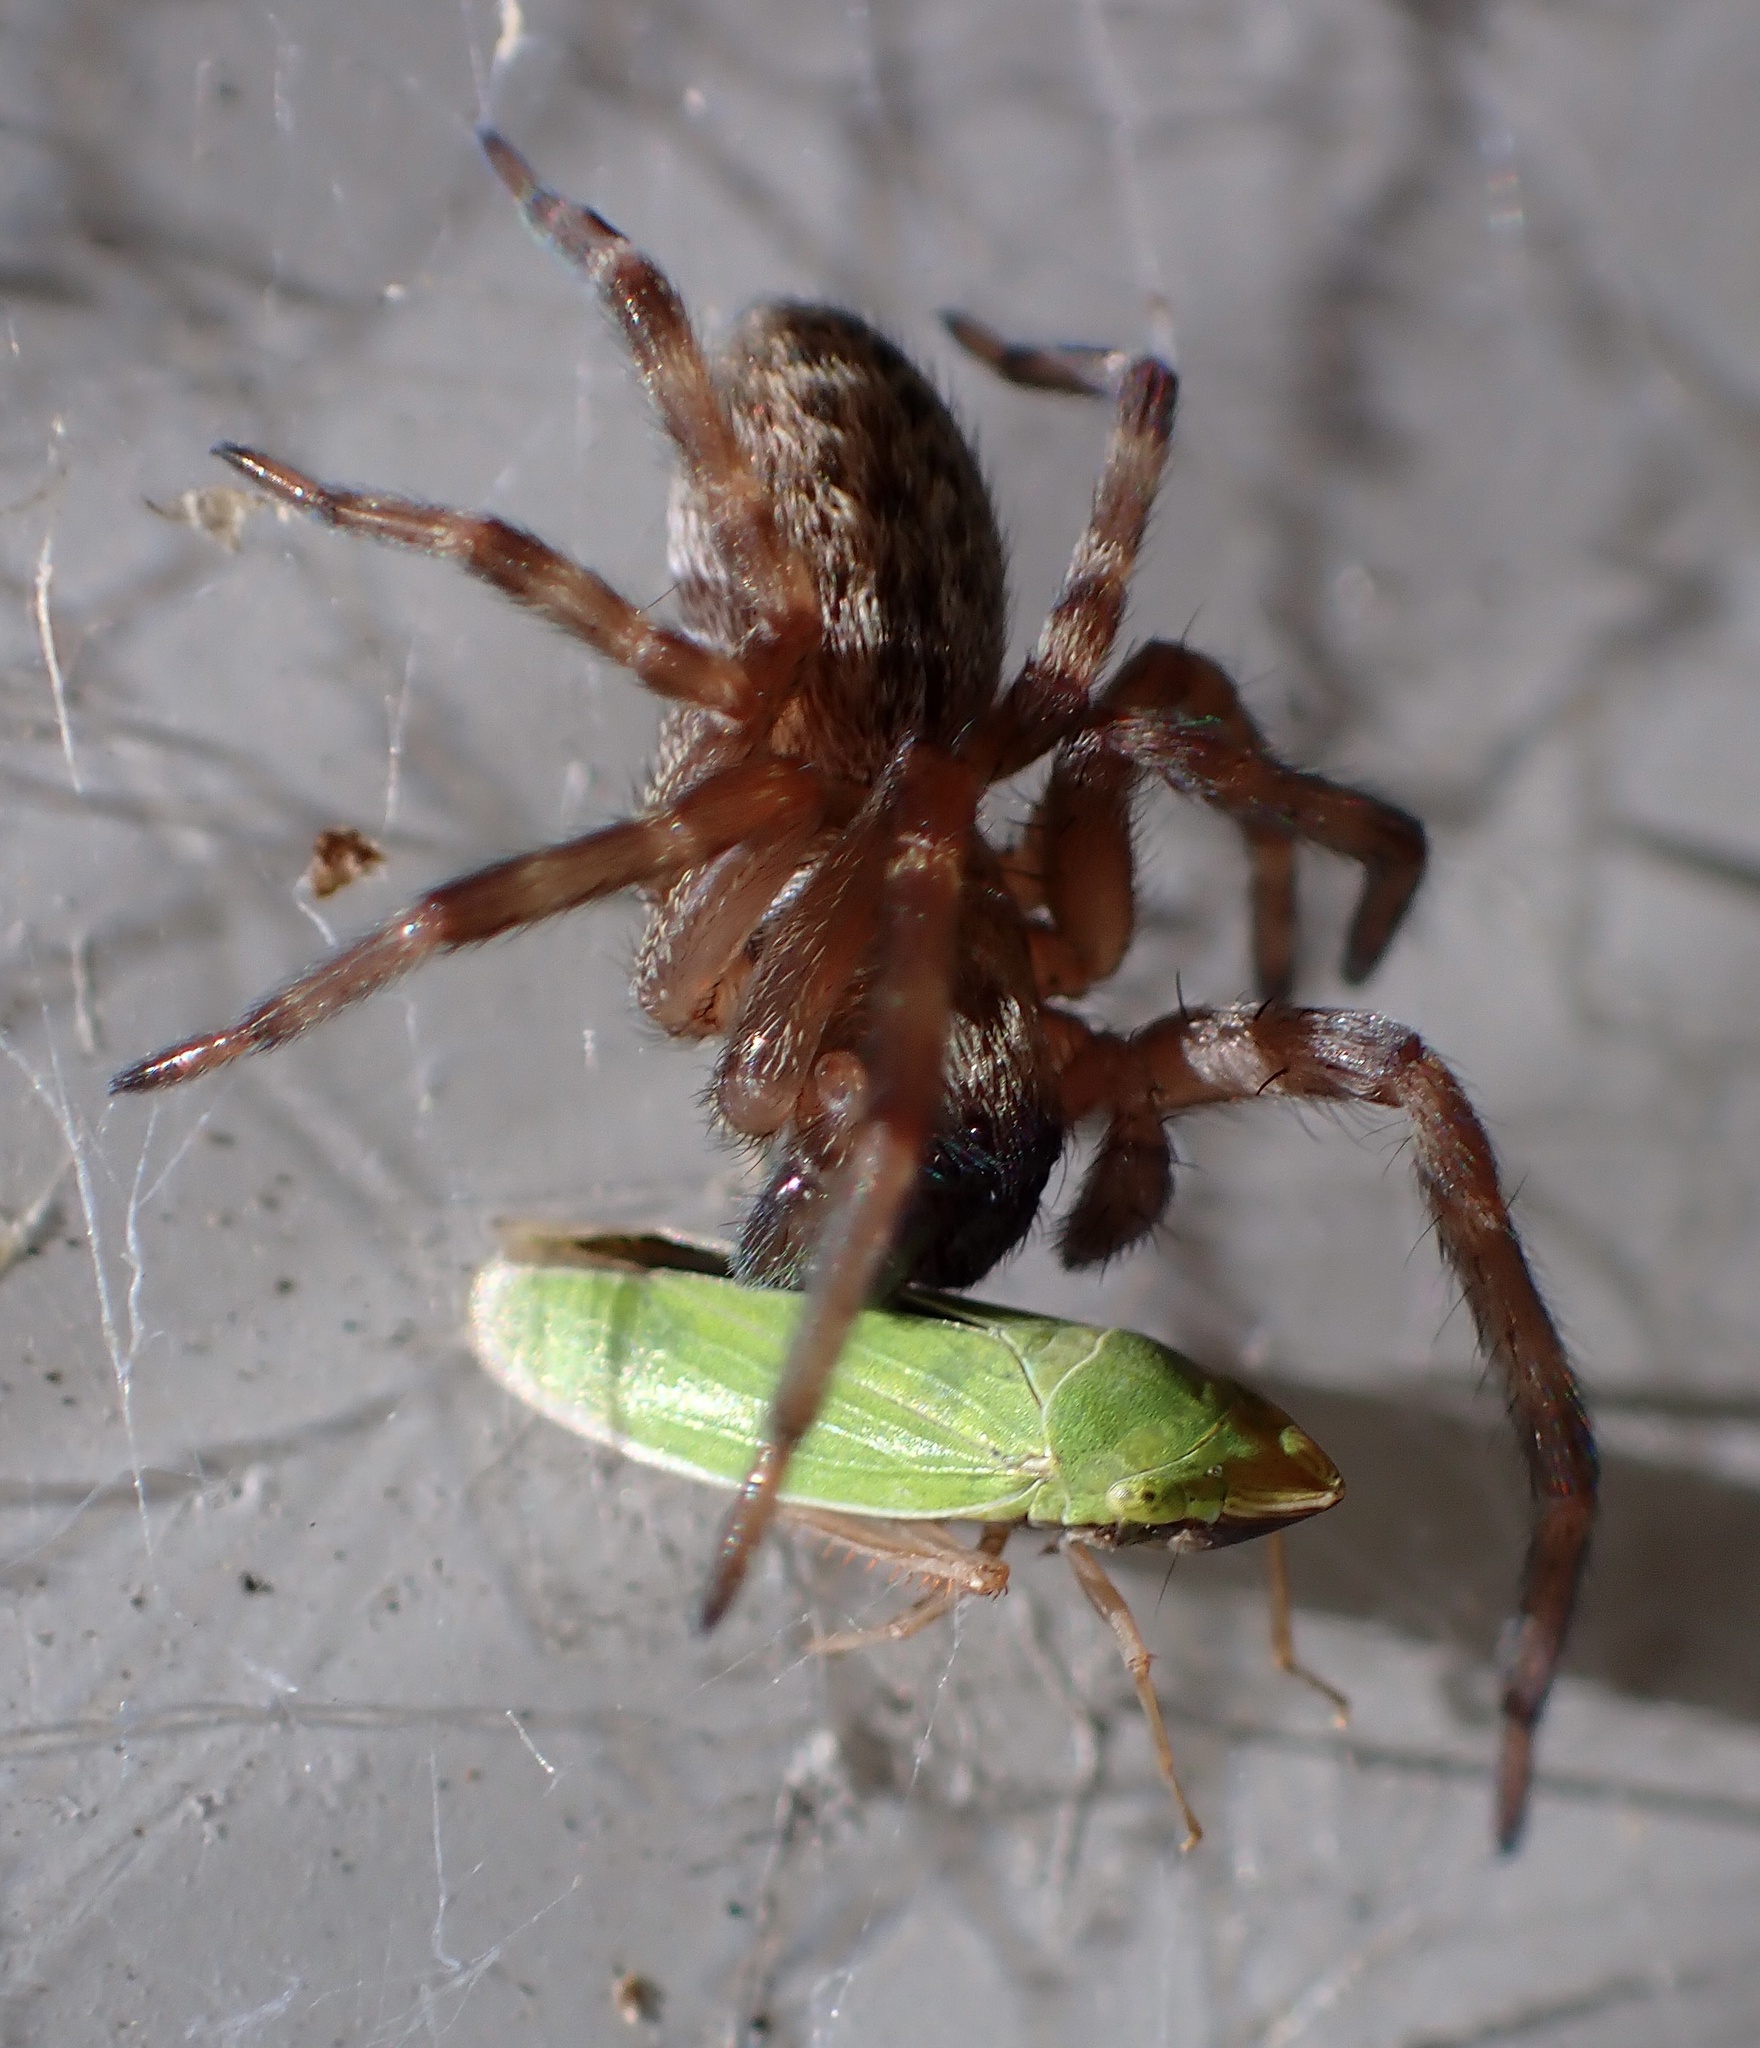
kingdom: Animalia
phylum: Arthropoda
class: Insecta
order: Hemiptera
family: Cicadellidae
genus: Draeculacephala
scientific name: Draeculacephala minerva
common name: Grass sharphooter
